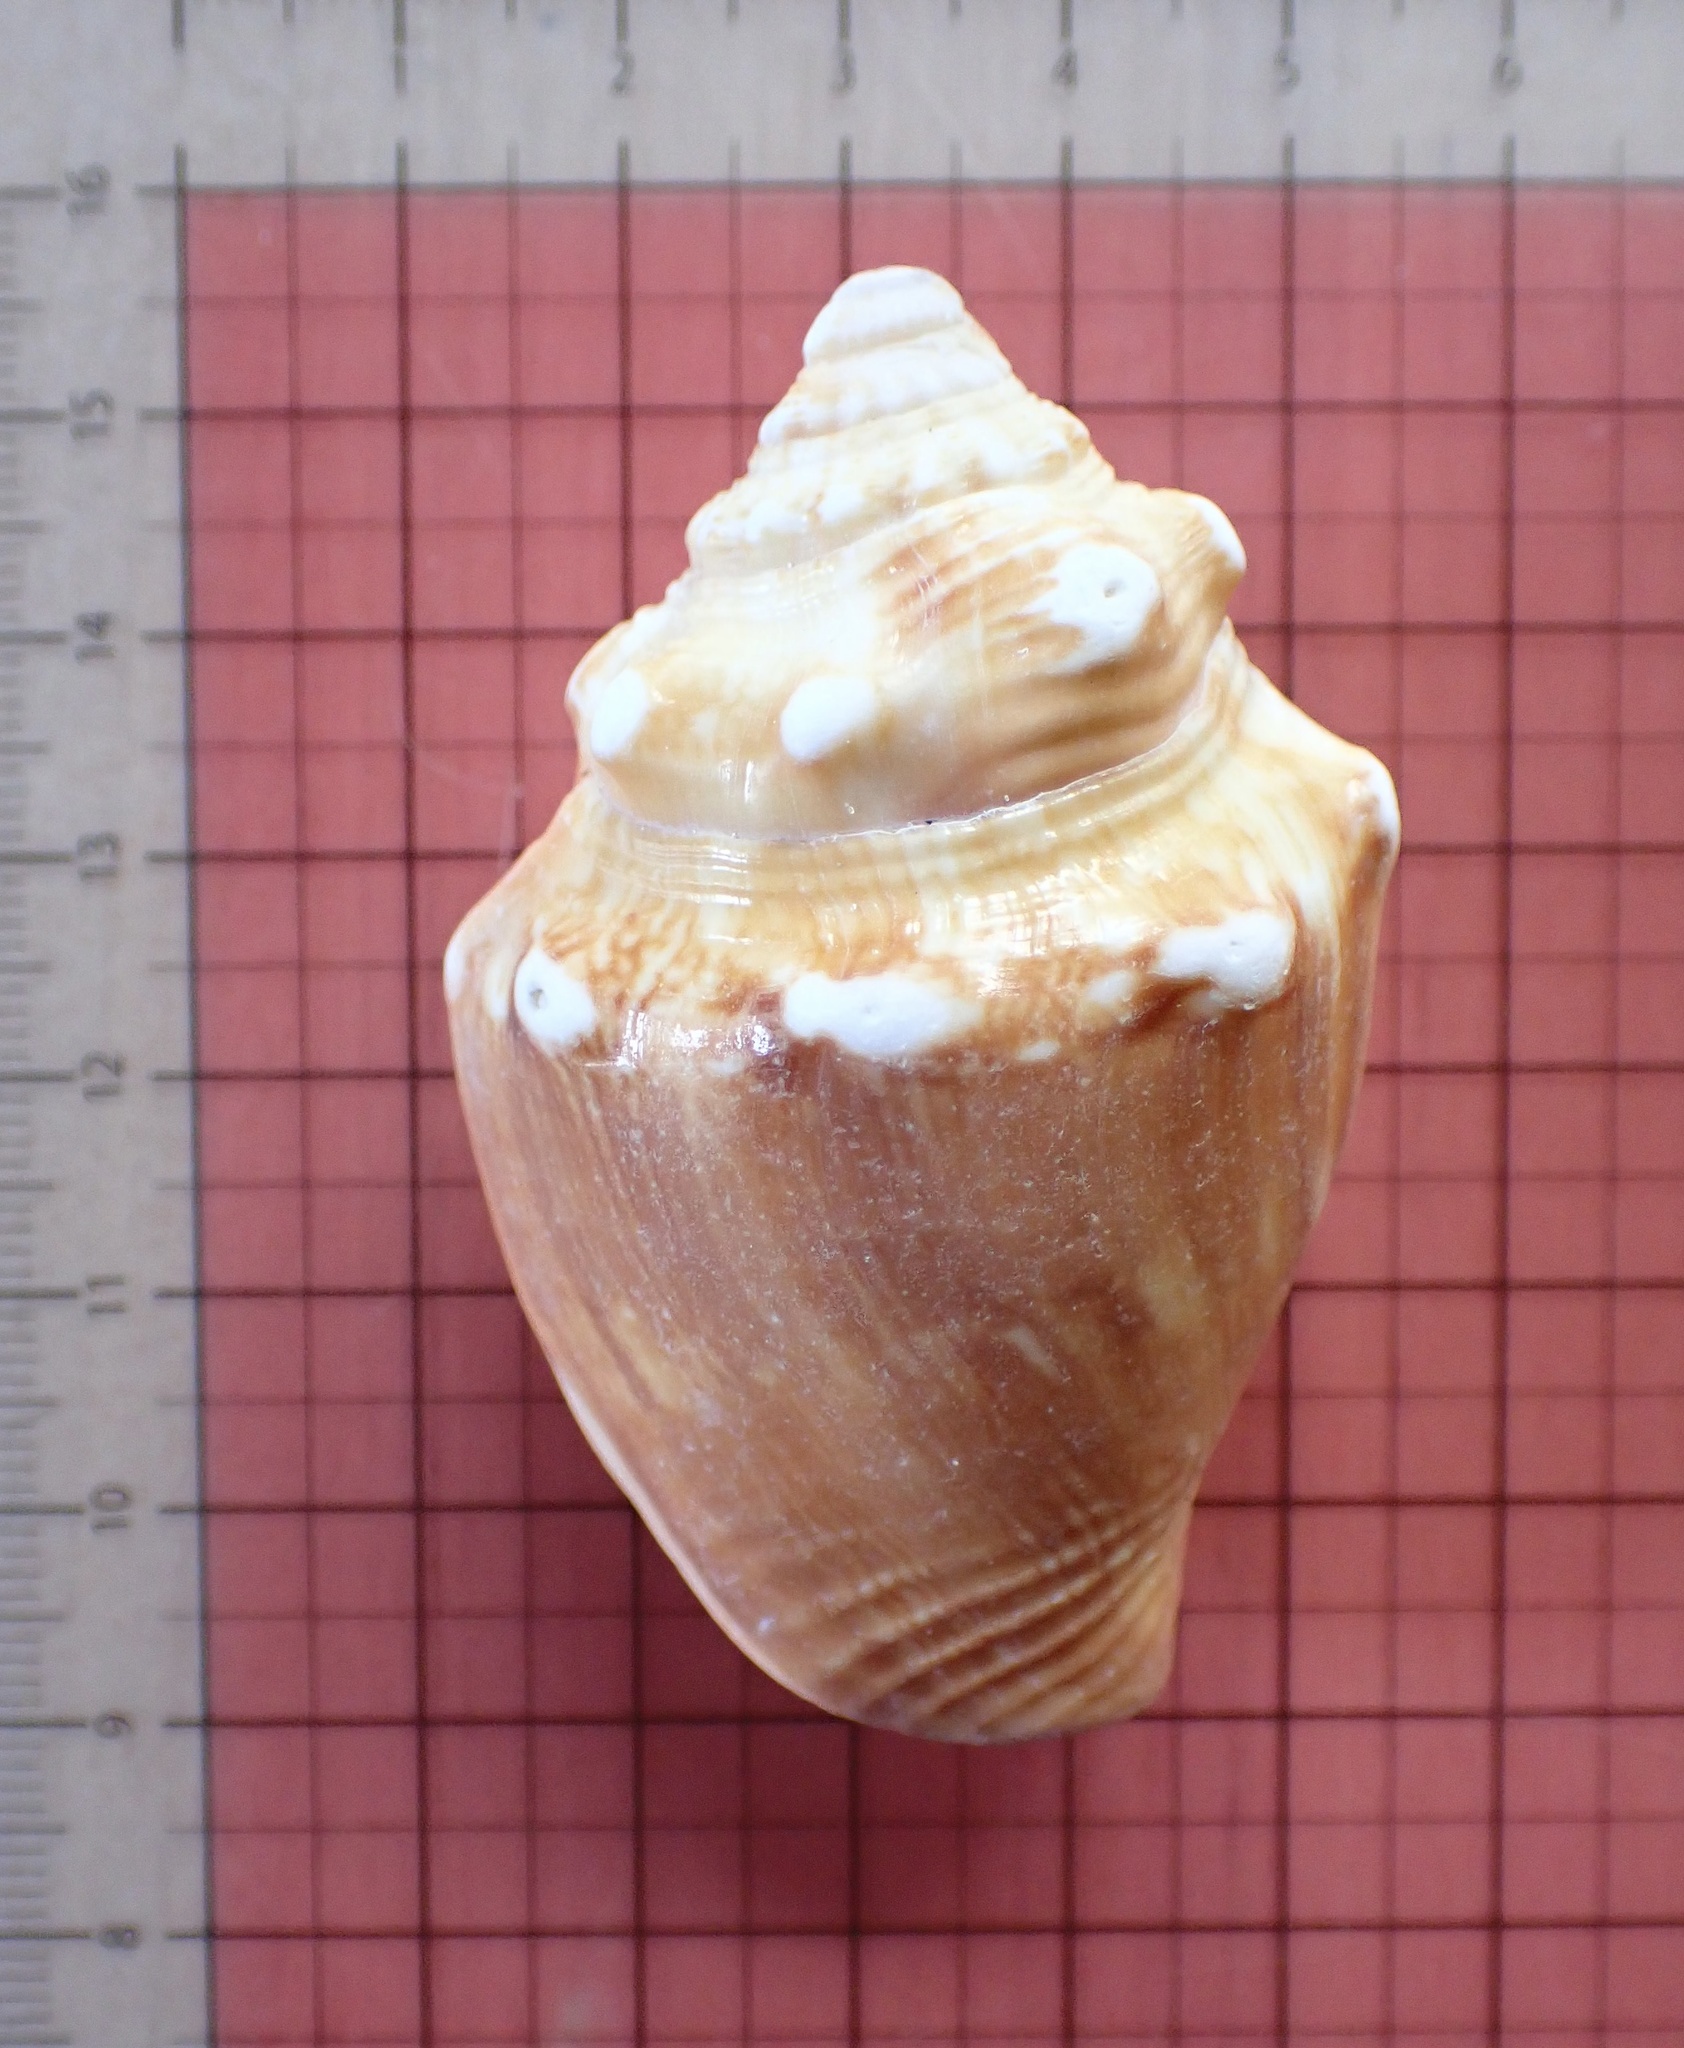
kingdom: Animalia
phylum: Mollusca
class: Gastropoda
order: Littorinimorpha
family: Strombidae
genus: Strombus
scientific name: Strombus alatus
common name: Florida fighting conch
